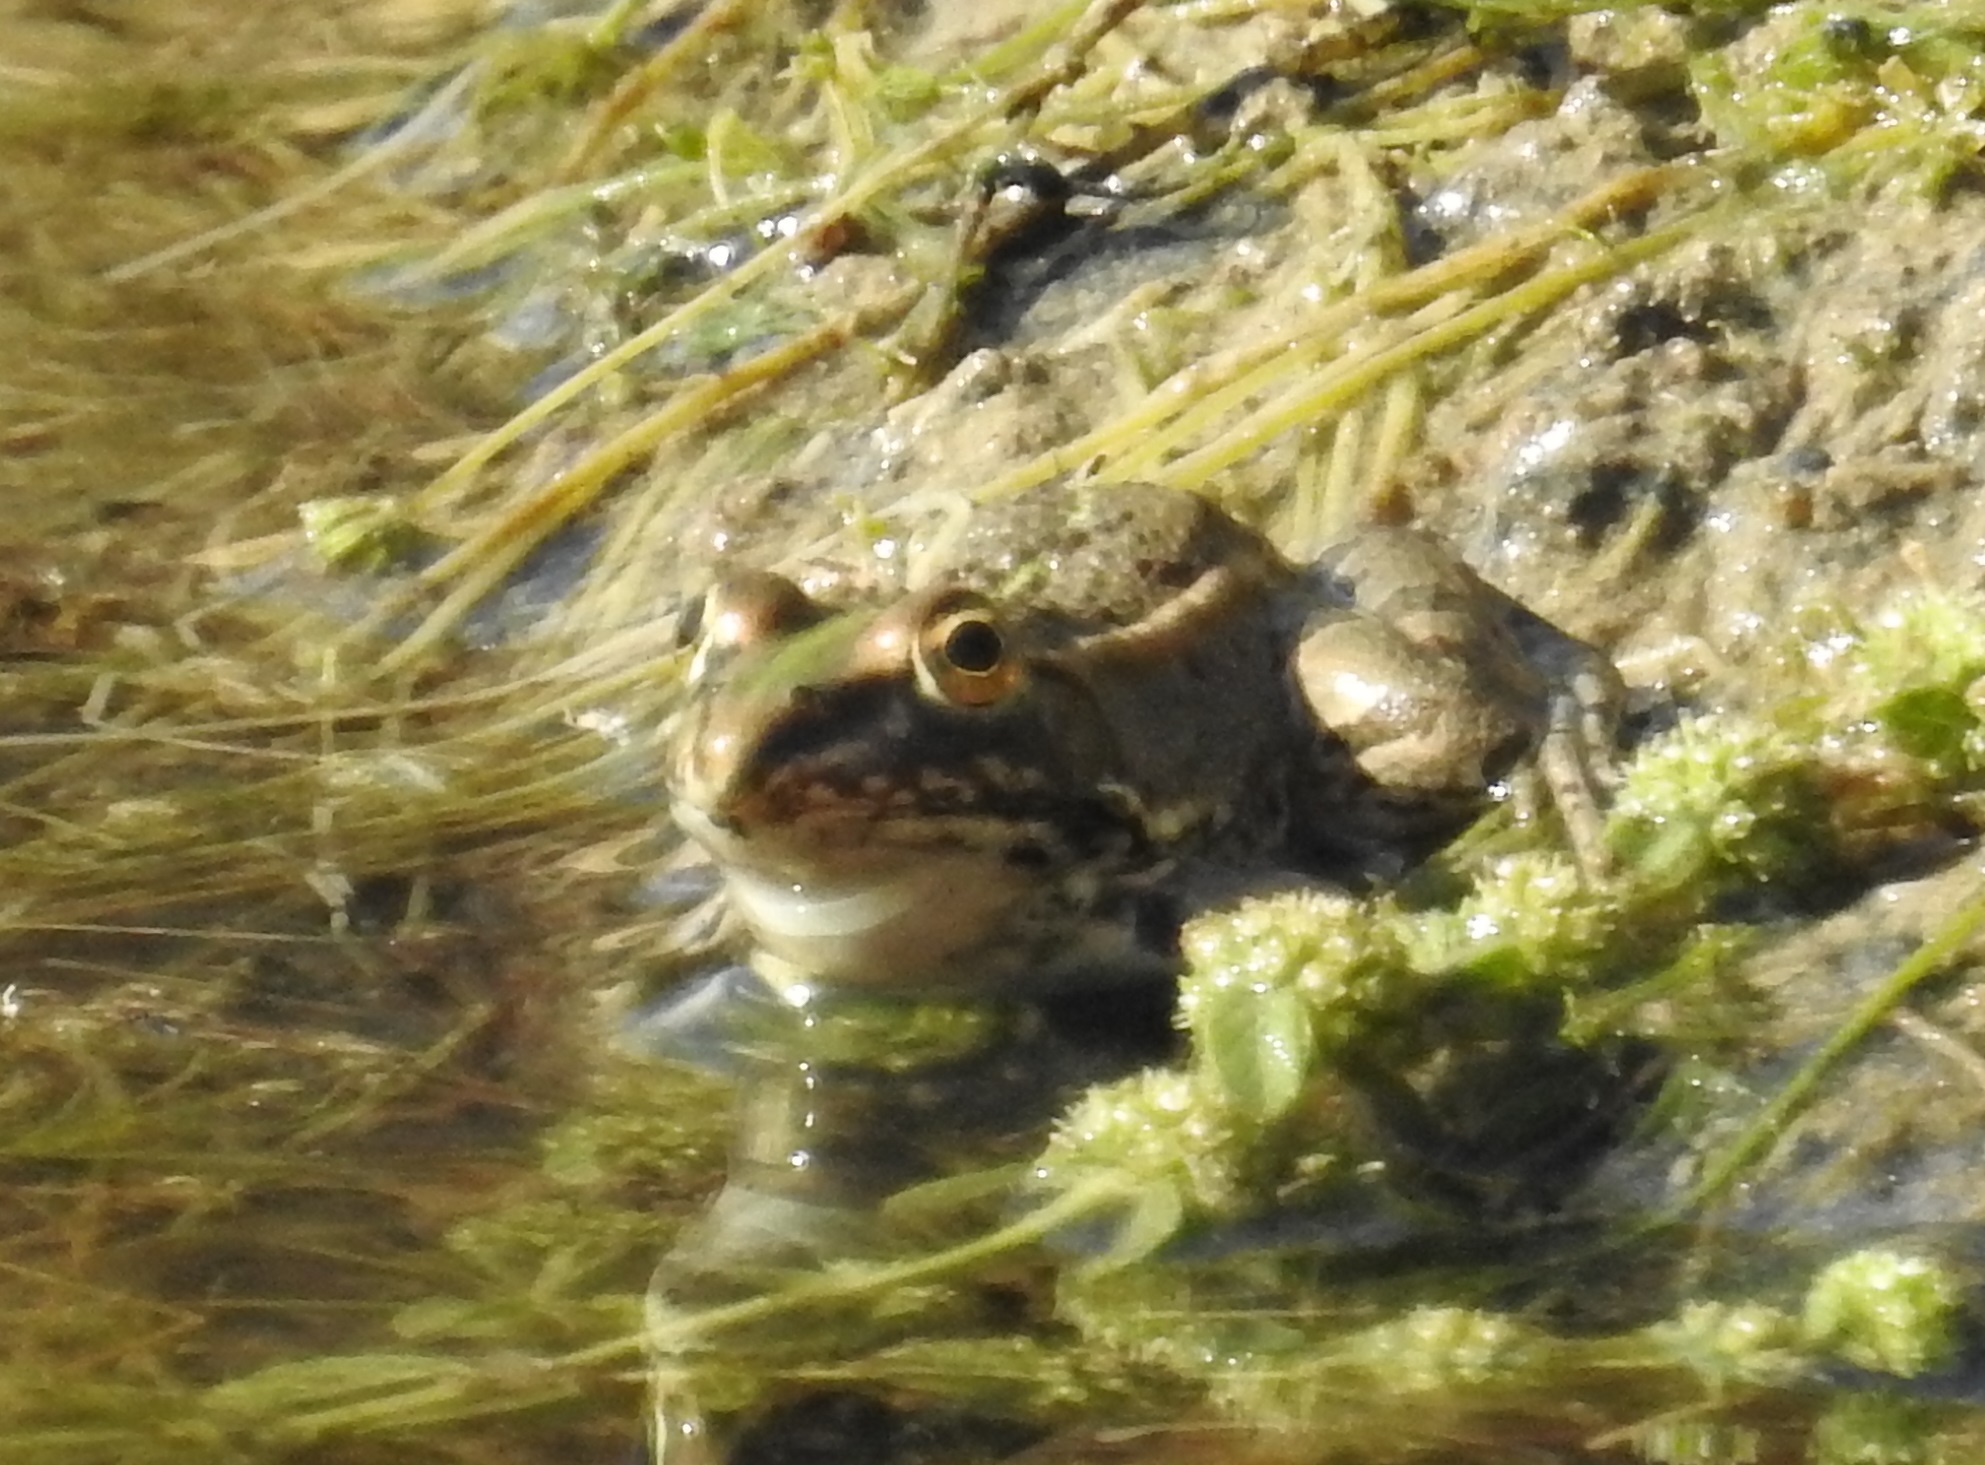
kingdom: Animalia
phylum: Chordata
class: Amphibia
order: Anura
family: Ranidae
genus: Pelophylax
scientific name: Pelophylax saharicus
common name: Sahara frog
